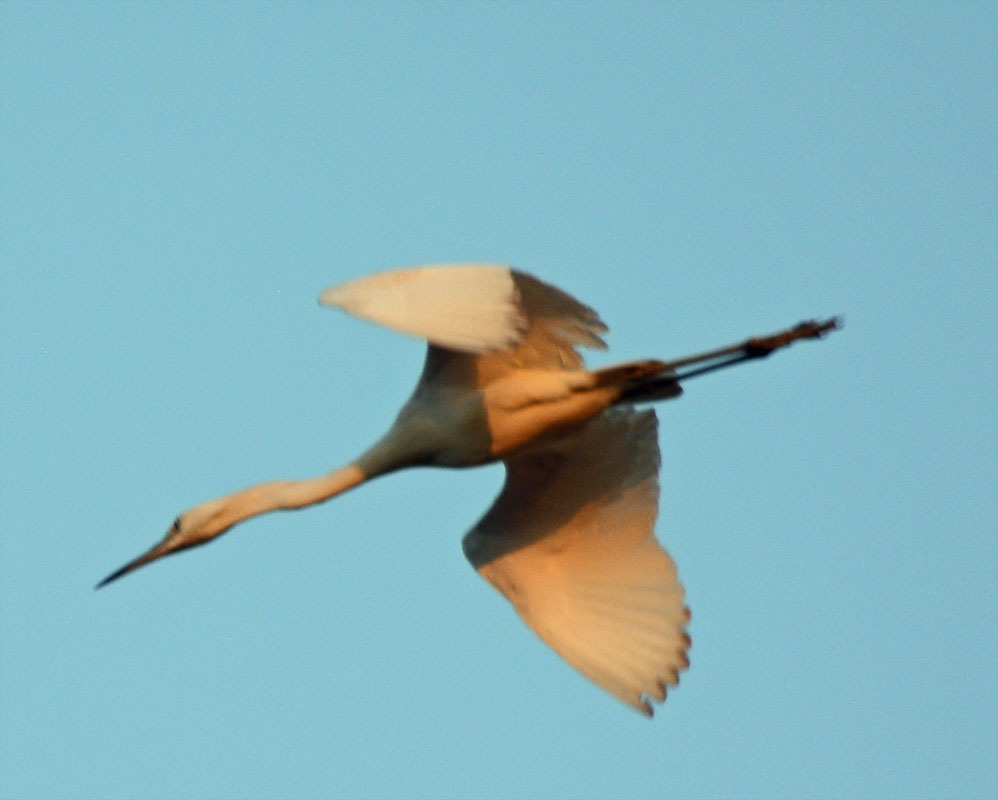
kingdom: Animalia
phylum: Chordata
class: Aves
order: Pelecaniformes
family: Ardeidae
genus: Ardea
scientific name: Ardea alba
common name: Great egret
